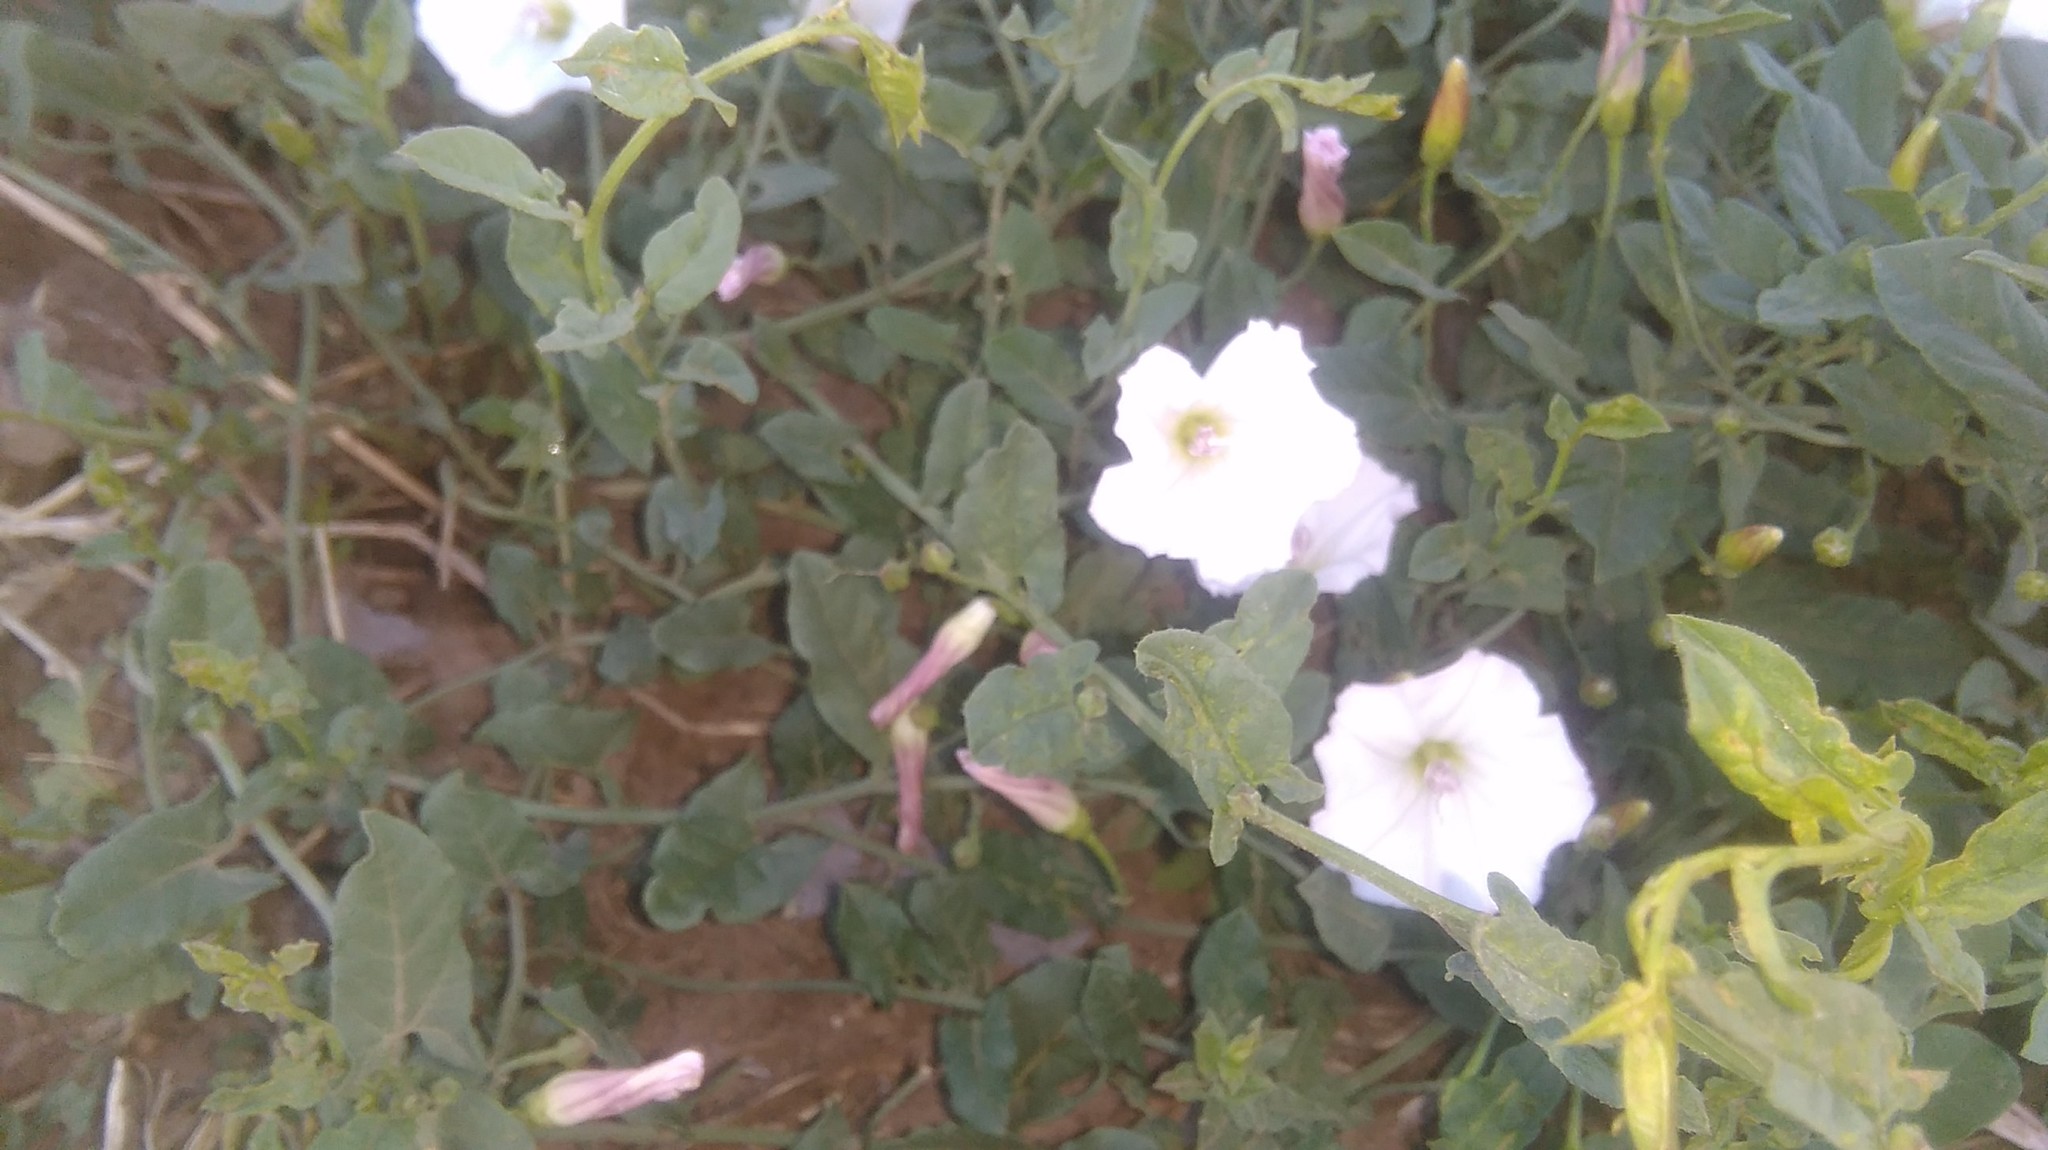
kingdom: Plantae
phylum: Tracheophyta
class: Magnoliopsida
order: Solanales
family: Convolvulaceae
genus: Convolvulus
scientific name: Convolvulus arvensis
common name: Field bindweed
